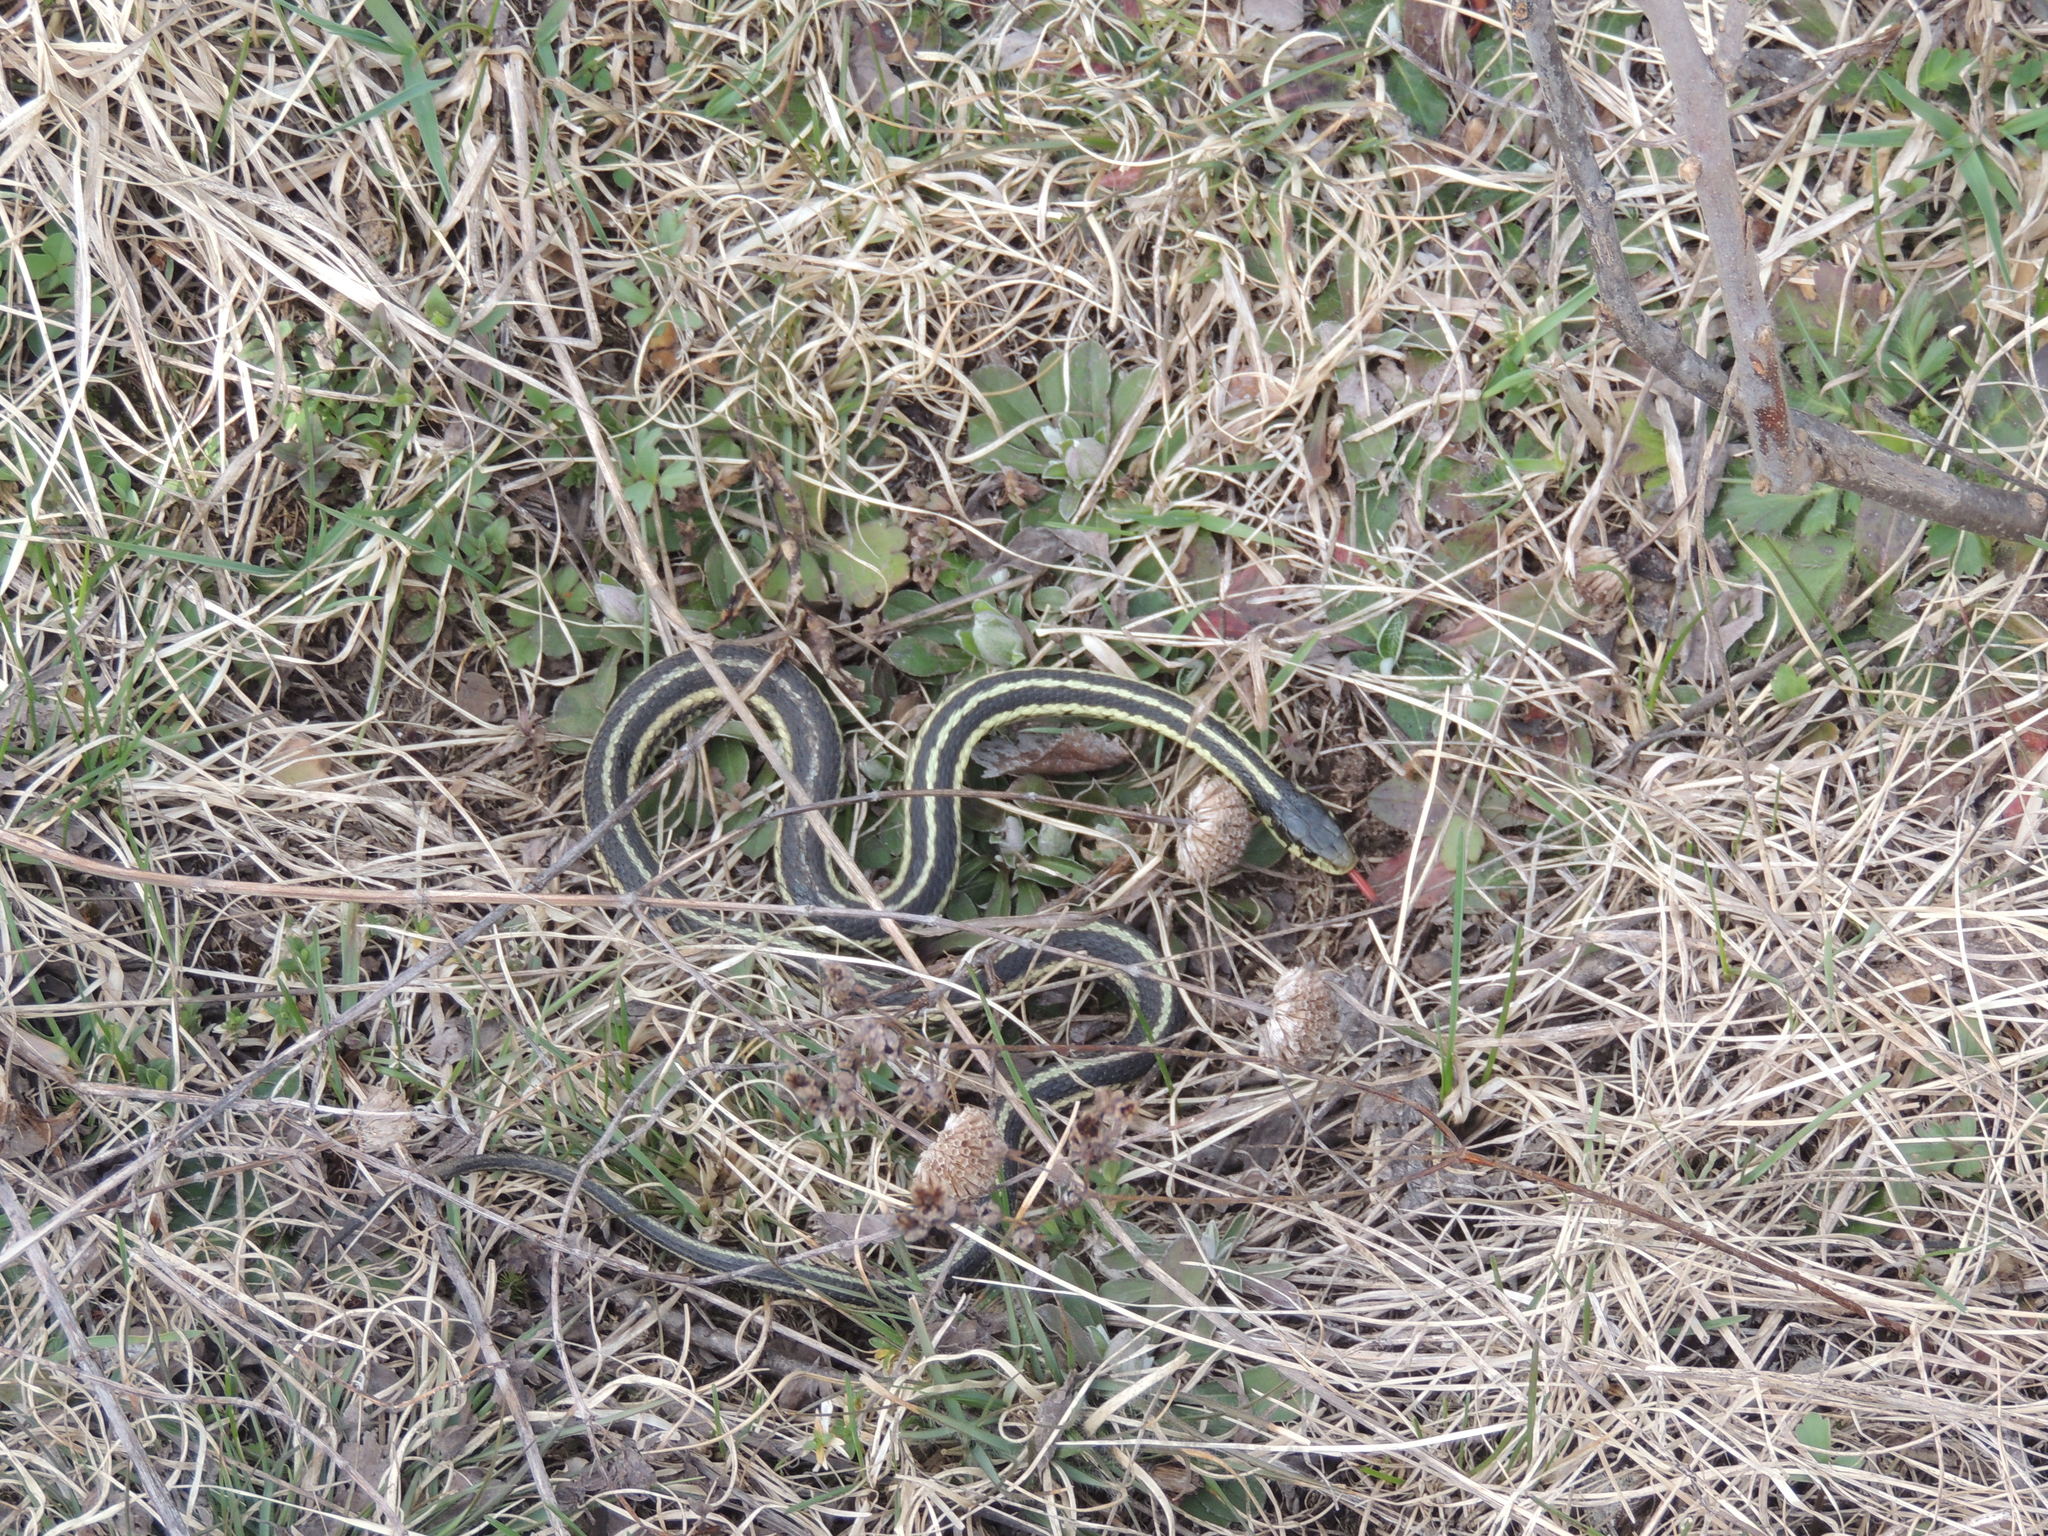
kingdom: Animalia
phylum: Chordata
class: Squamata
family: Colubridae
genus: Thamnophis
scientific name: Thamnophis sirtalis
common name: Common garter snake
